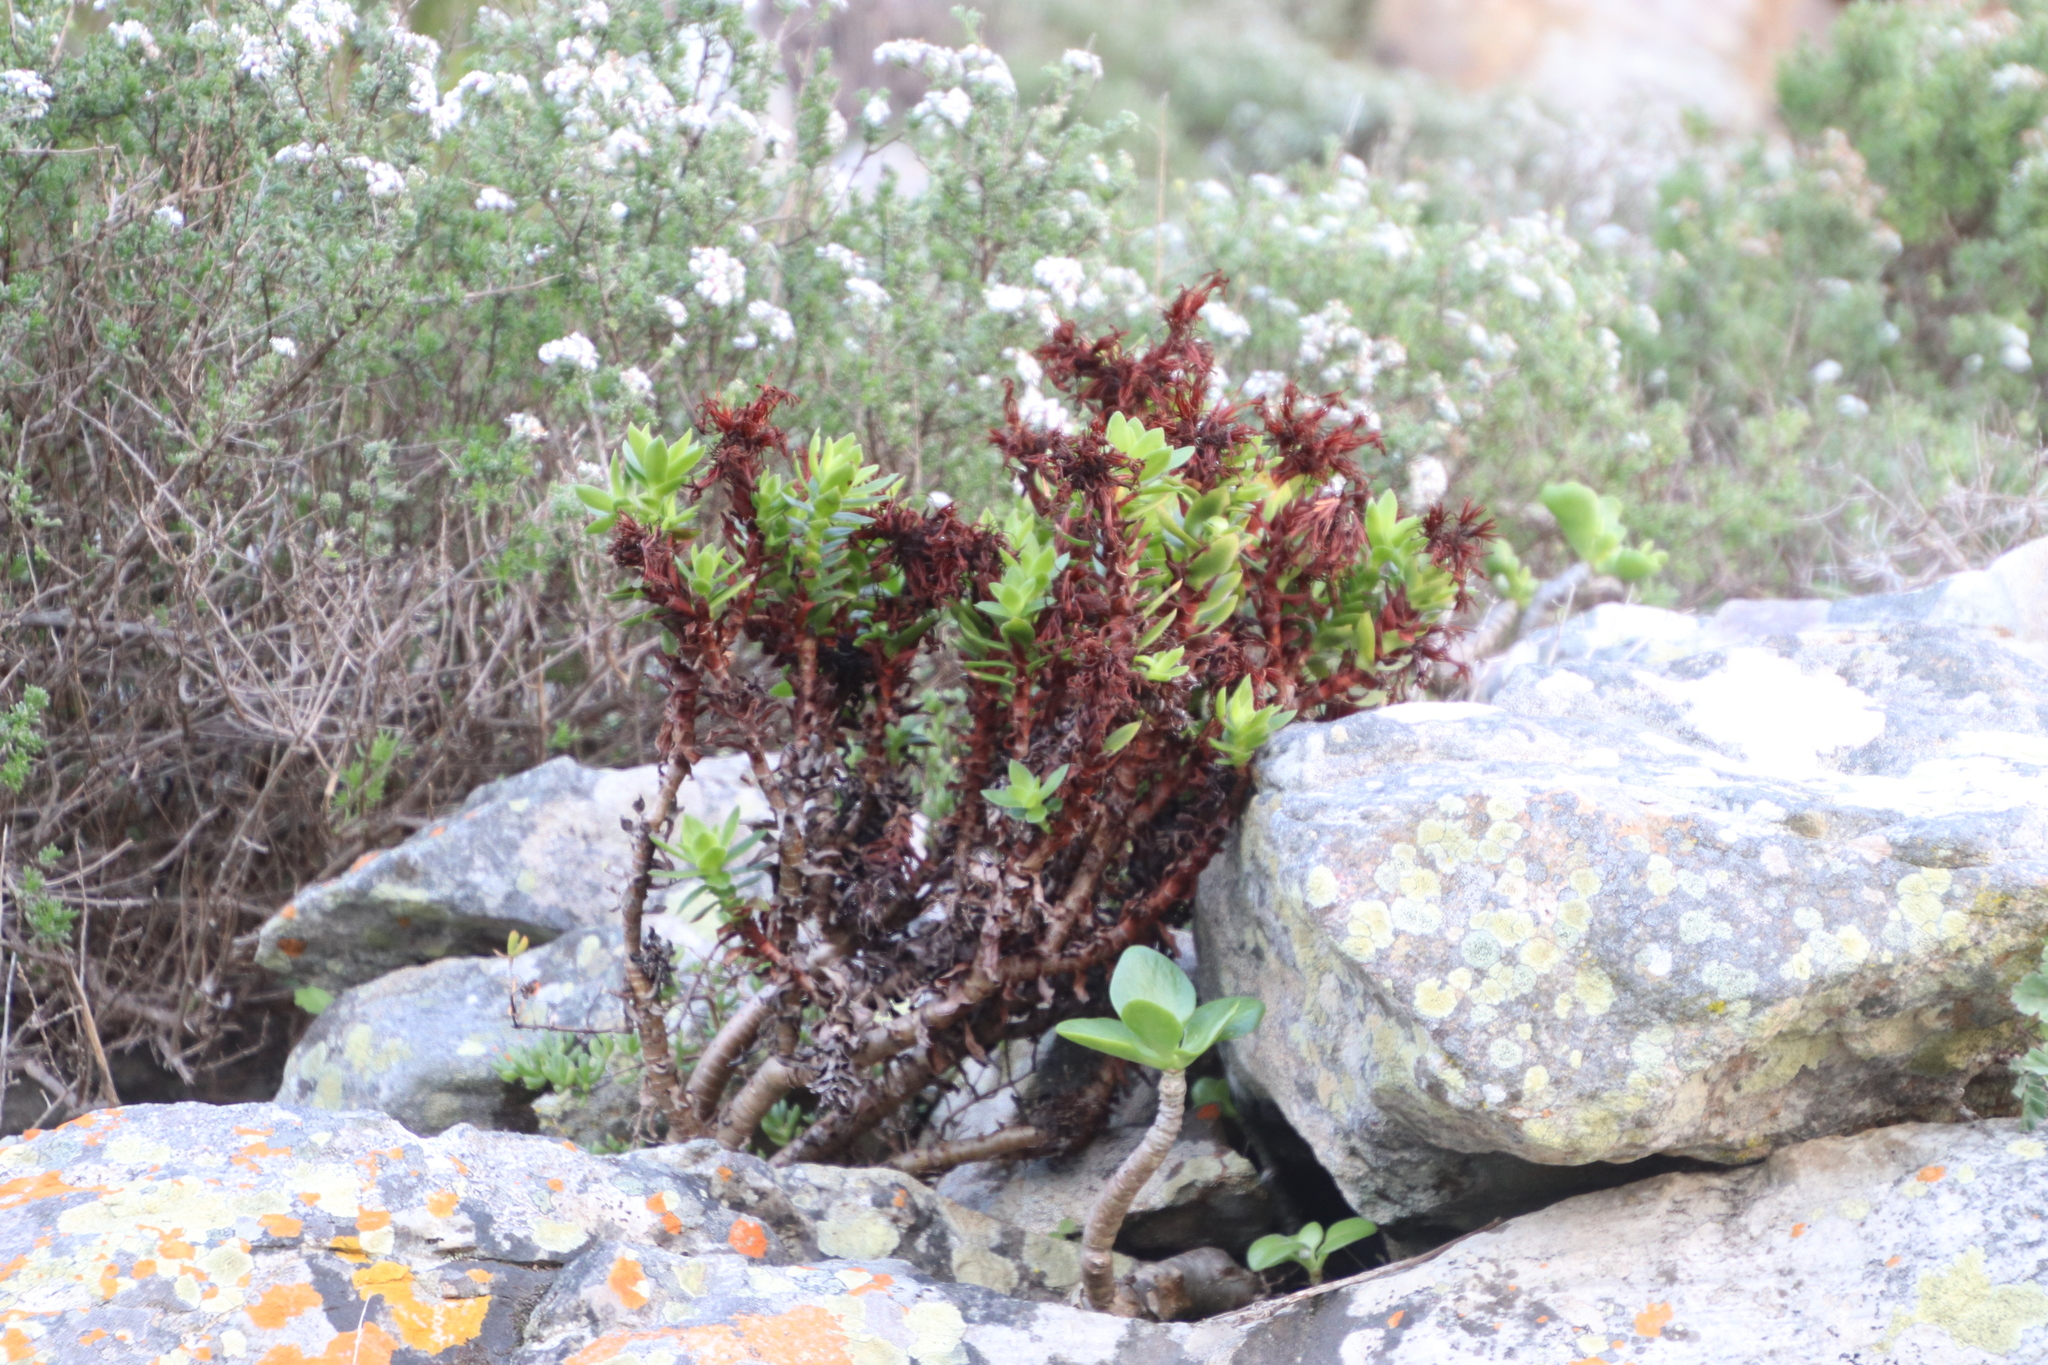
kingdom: Plantae
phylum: Tracheophyta
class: Magnoliopsida
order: Saxifragales
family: Crassulaceae
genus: Crassula
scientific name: Crassula coccinea
